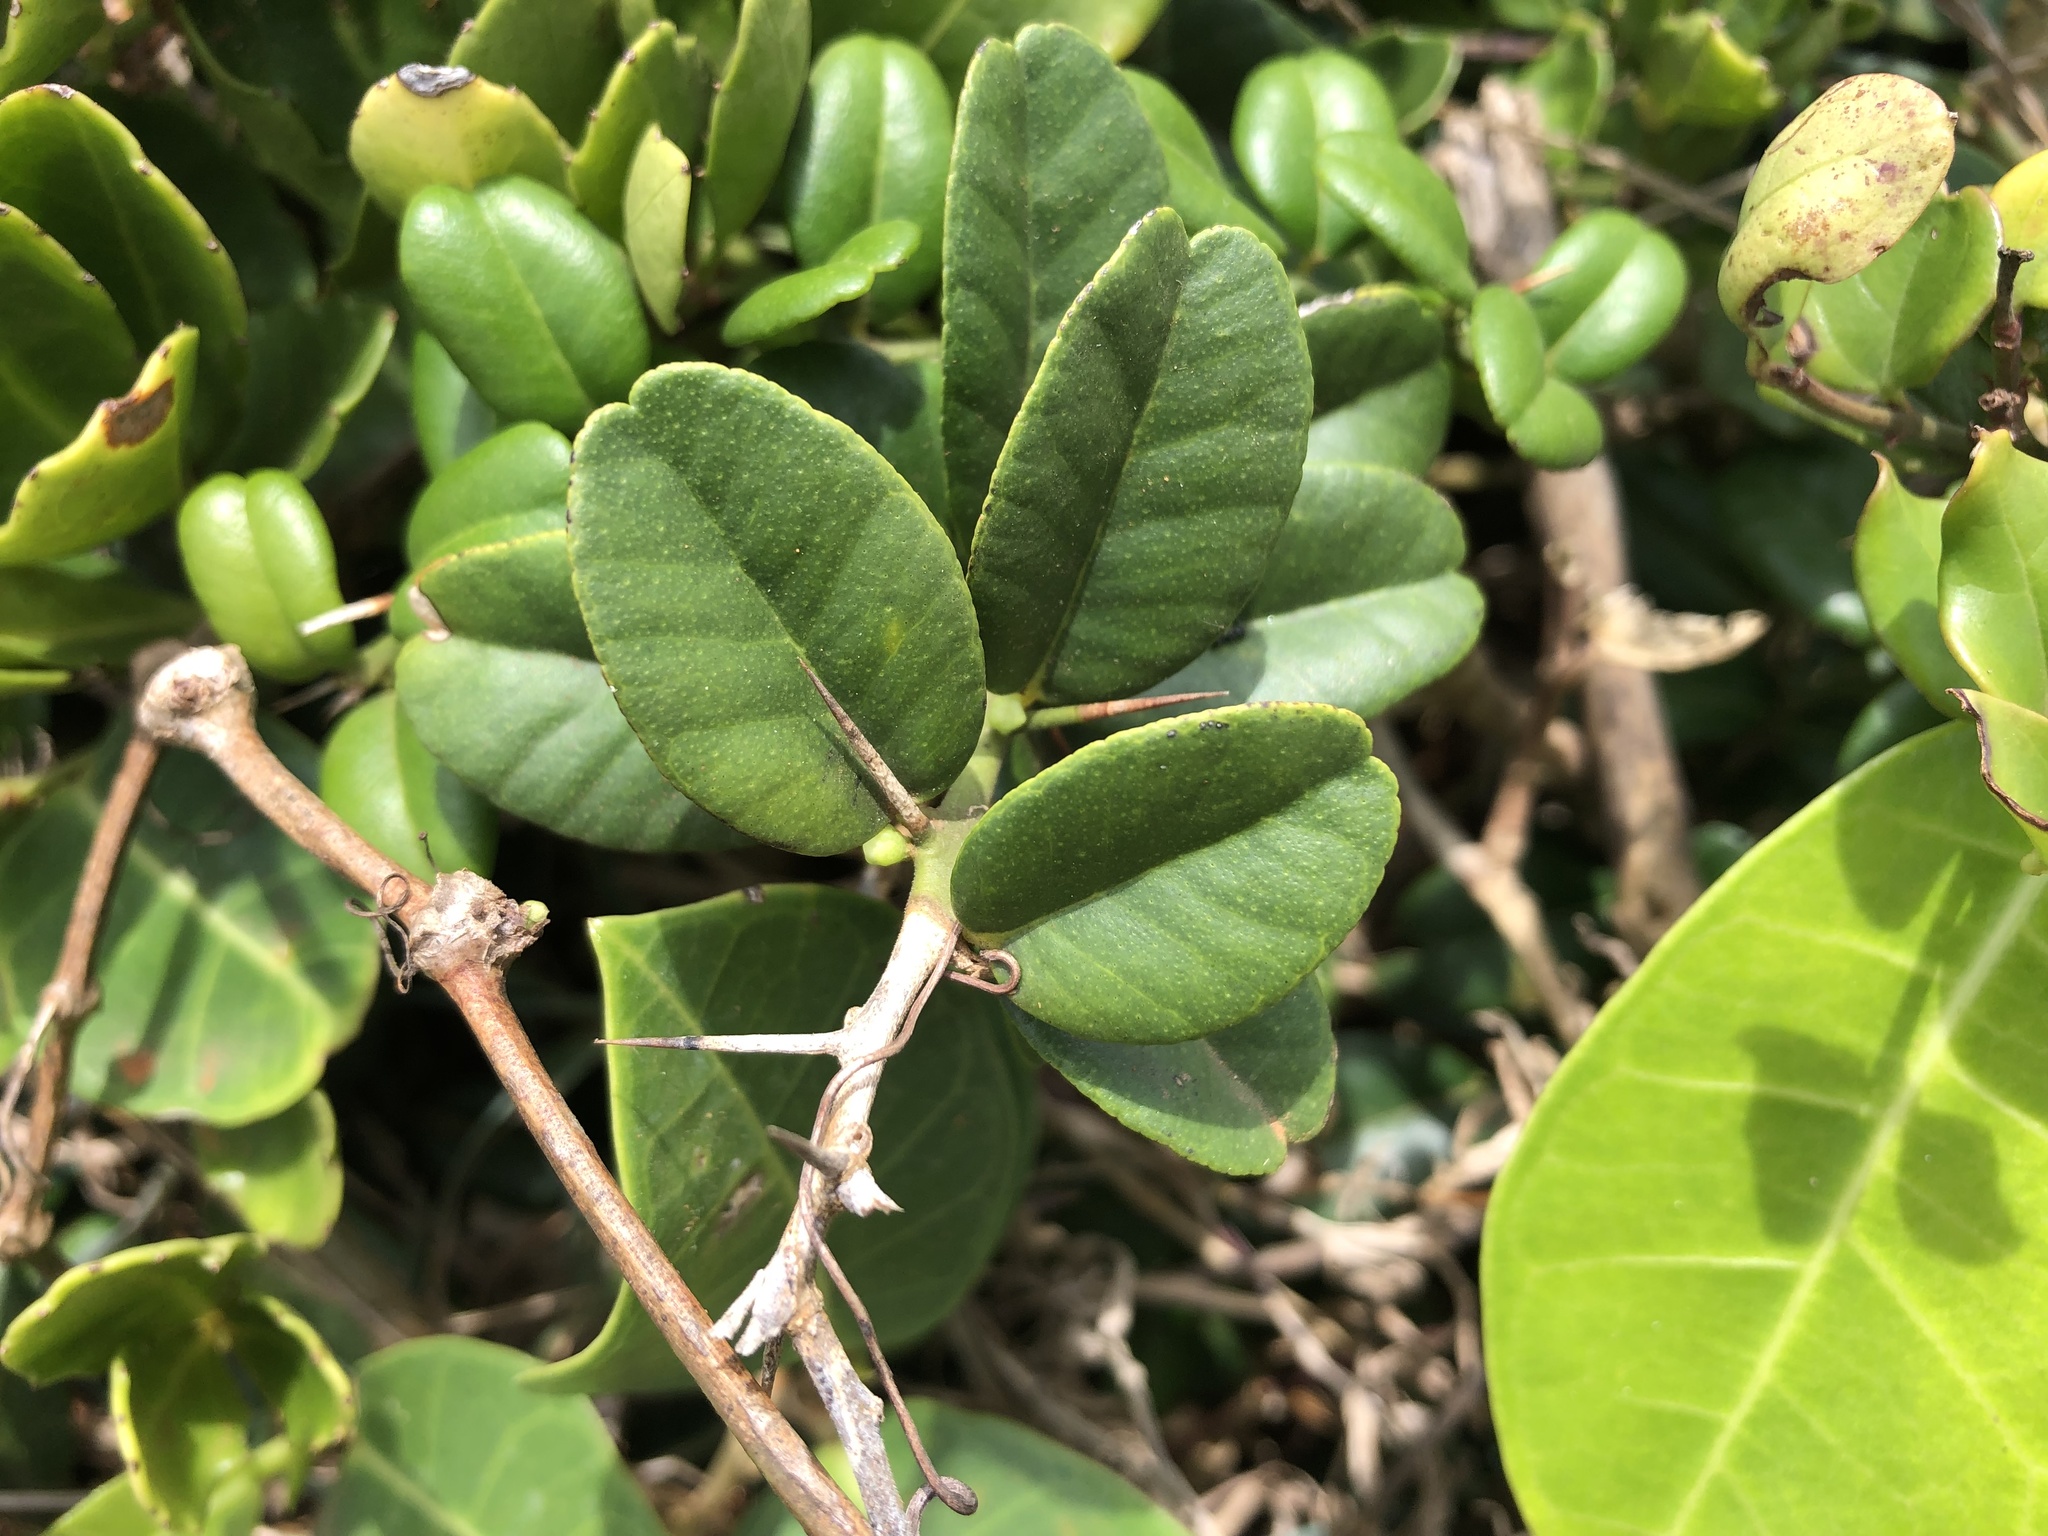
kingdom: Plantae
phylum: Tracheophyta
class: Magnoliopsida
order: Sapindales
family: Rutaceae
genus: Atalantia
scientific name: Atalantia buxifolia
